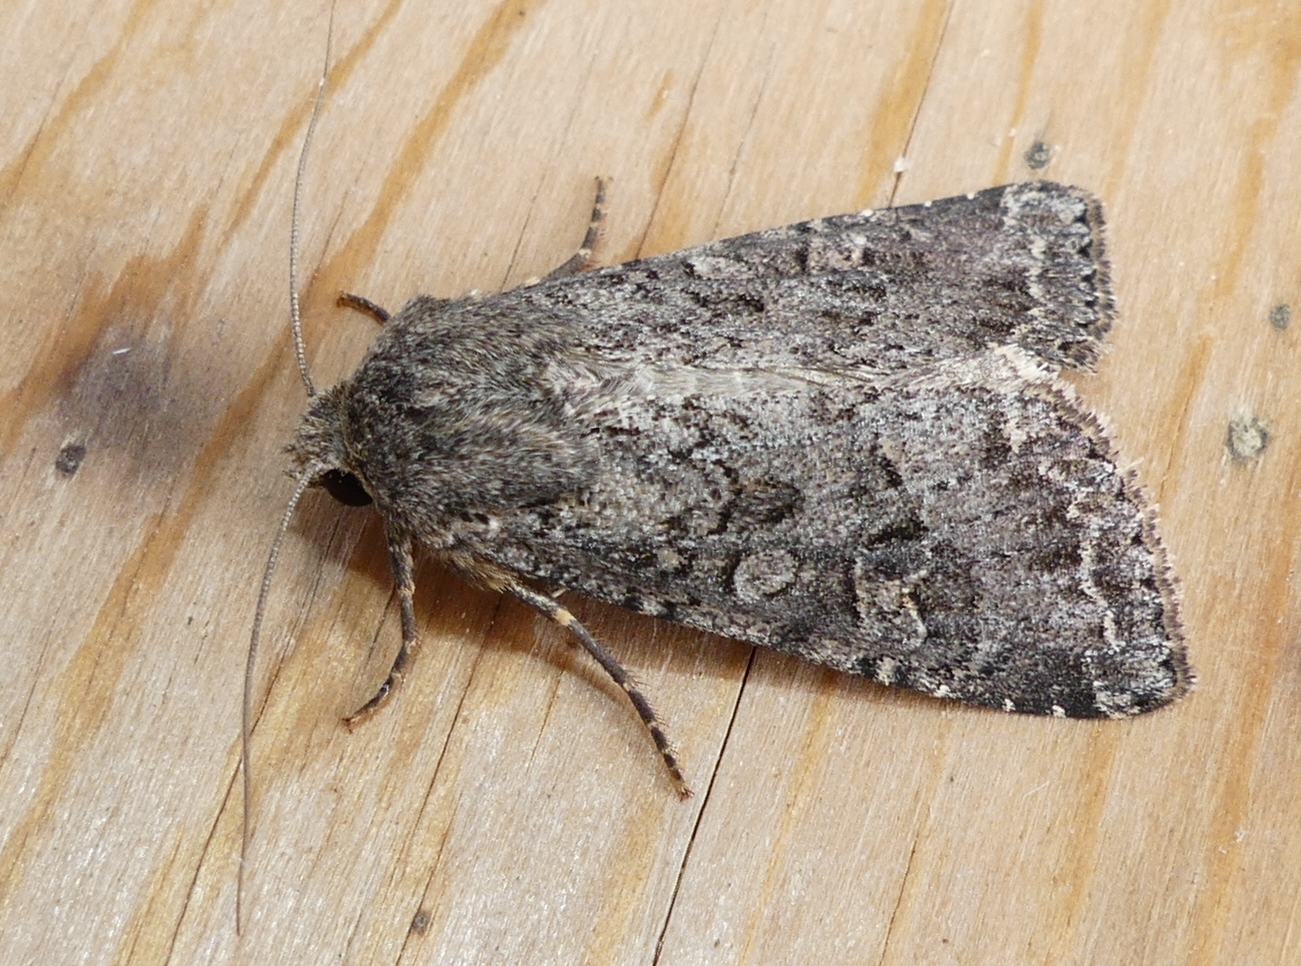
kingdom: Animalia
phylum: Arthropoda
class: Insecta
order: Lepidoptera
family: Noctuidae
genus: Apamea
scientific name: Apamea devastator
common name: Glassy cutworm
